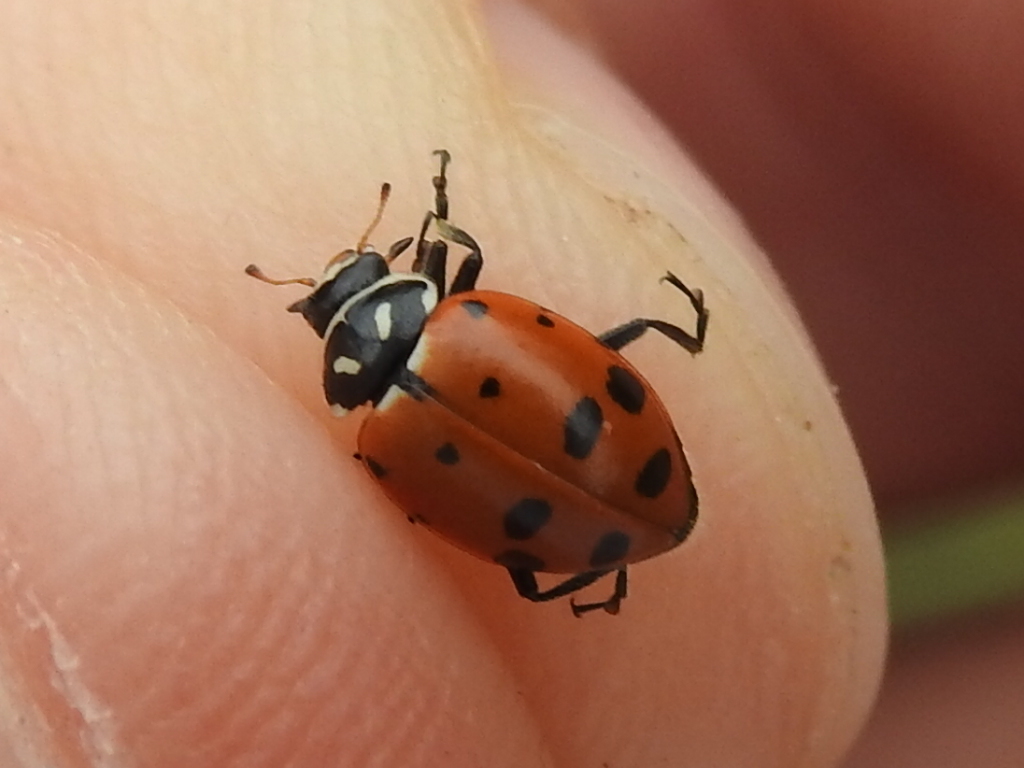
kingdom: Animalia
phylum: Arthropoda
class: Insecta
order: Coleoptera
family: Coccinellidae
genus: Hippodamia
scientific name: Hippodamia convergens
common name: Convergent lady beetle
